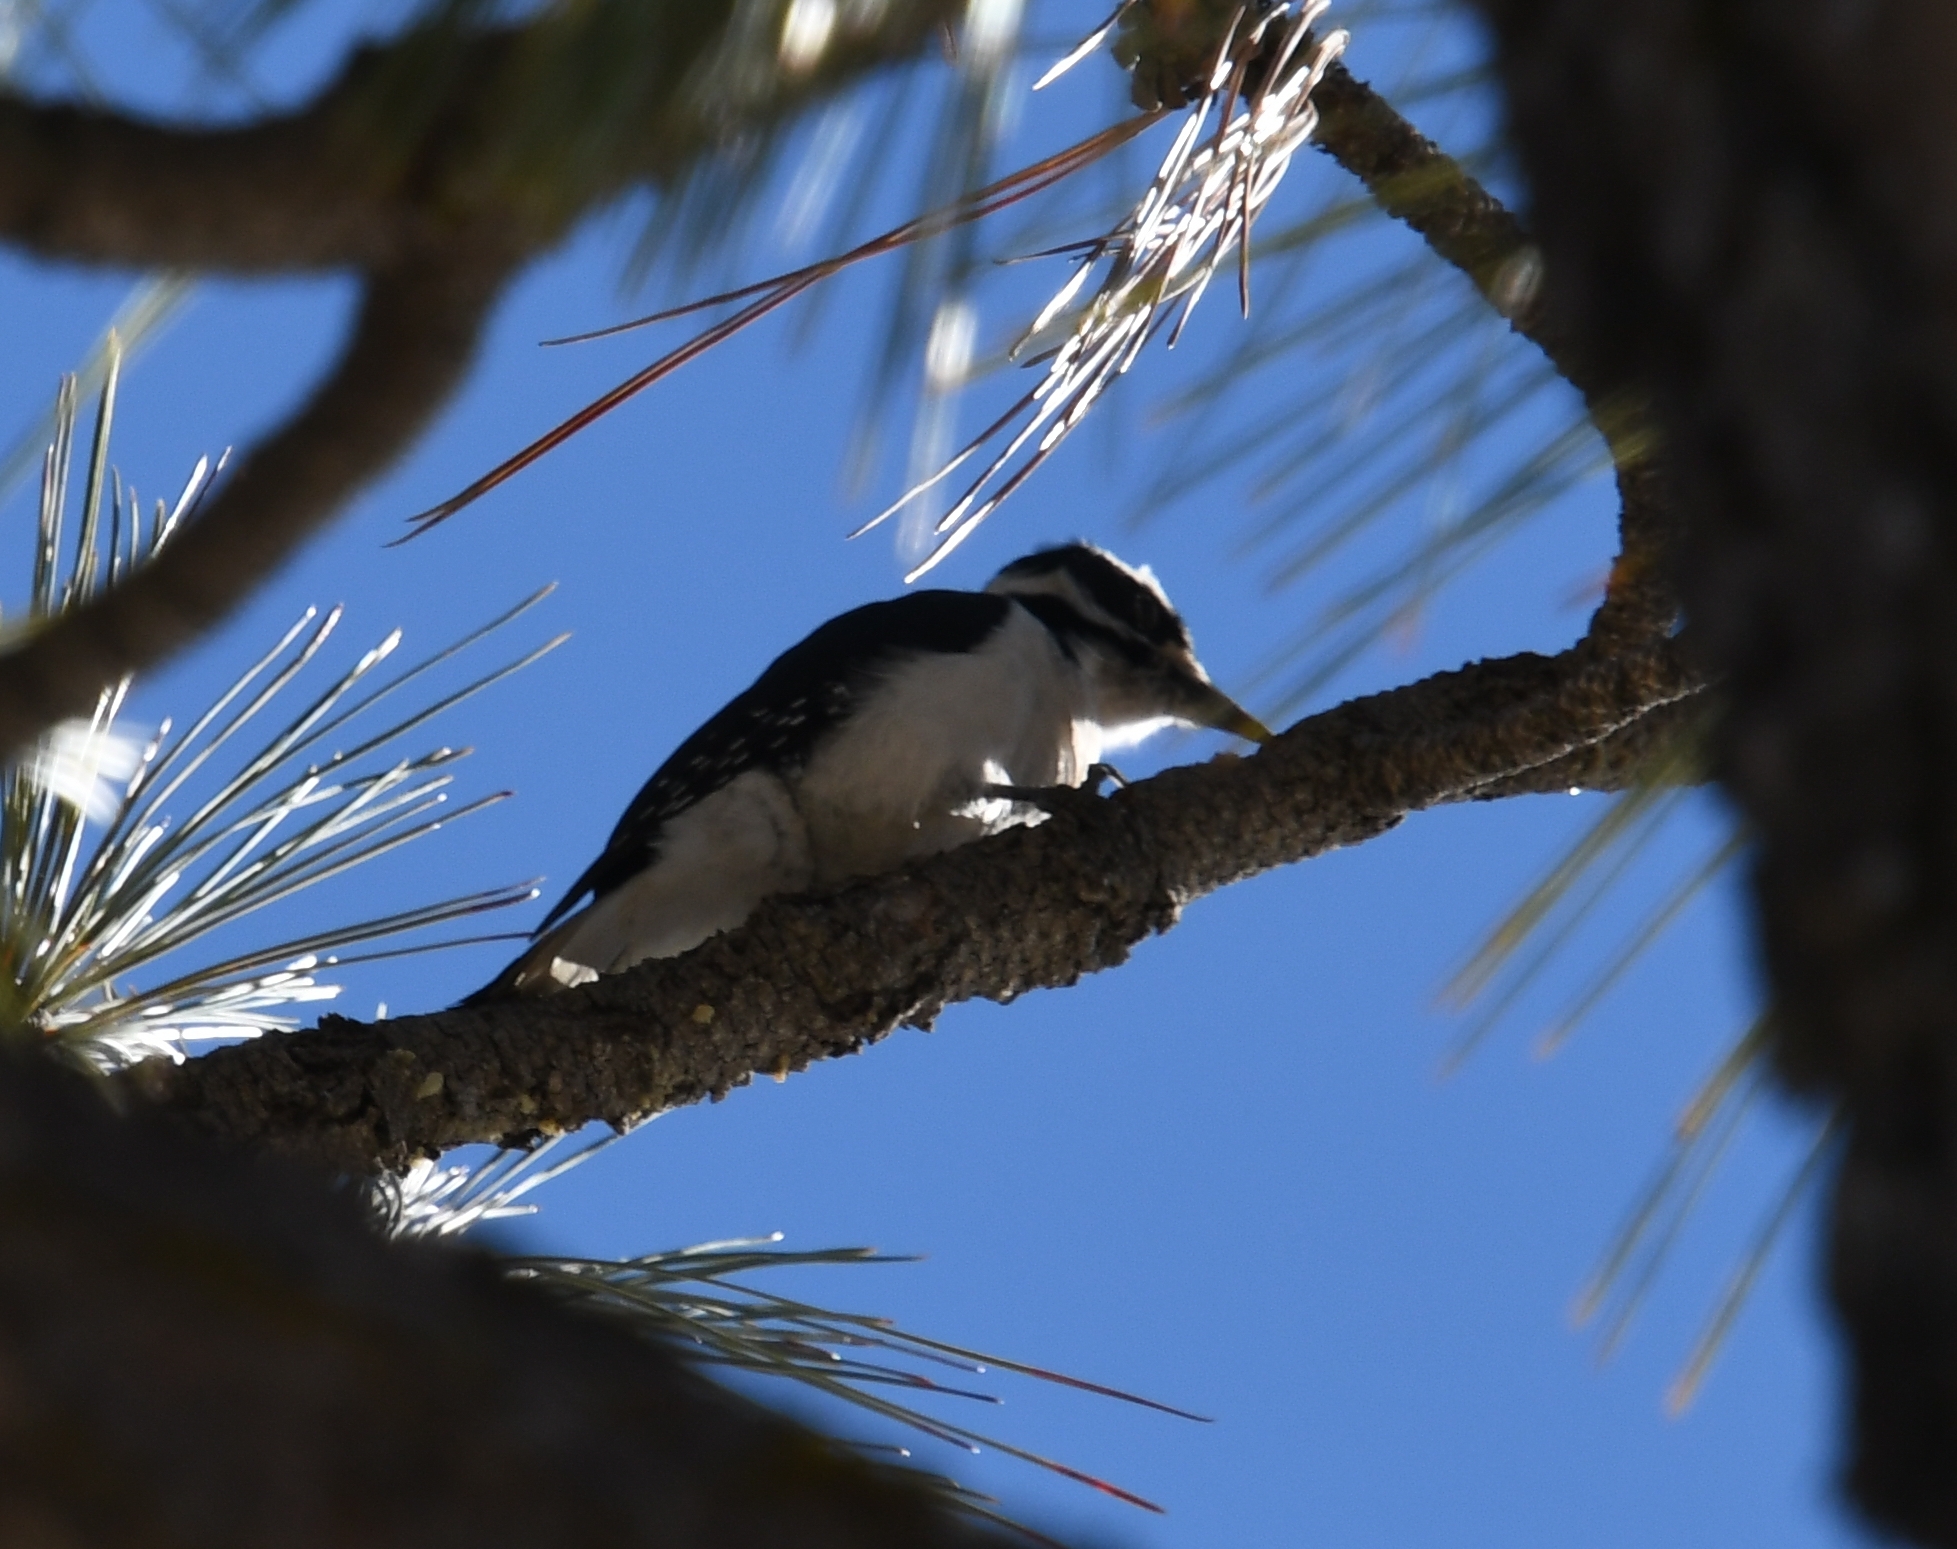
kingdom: Animalia
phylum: Chordata
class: Aves
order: Piciformes
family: Picidae
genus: Leuconotopicus
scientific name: Leuconotopicus villosus
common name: Hairy woodpecker
